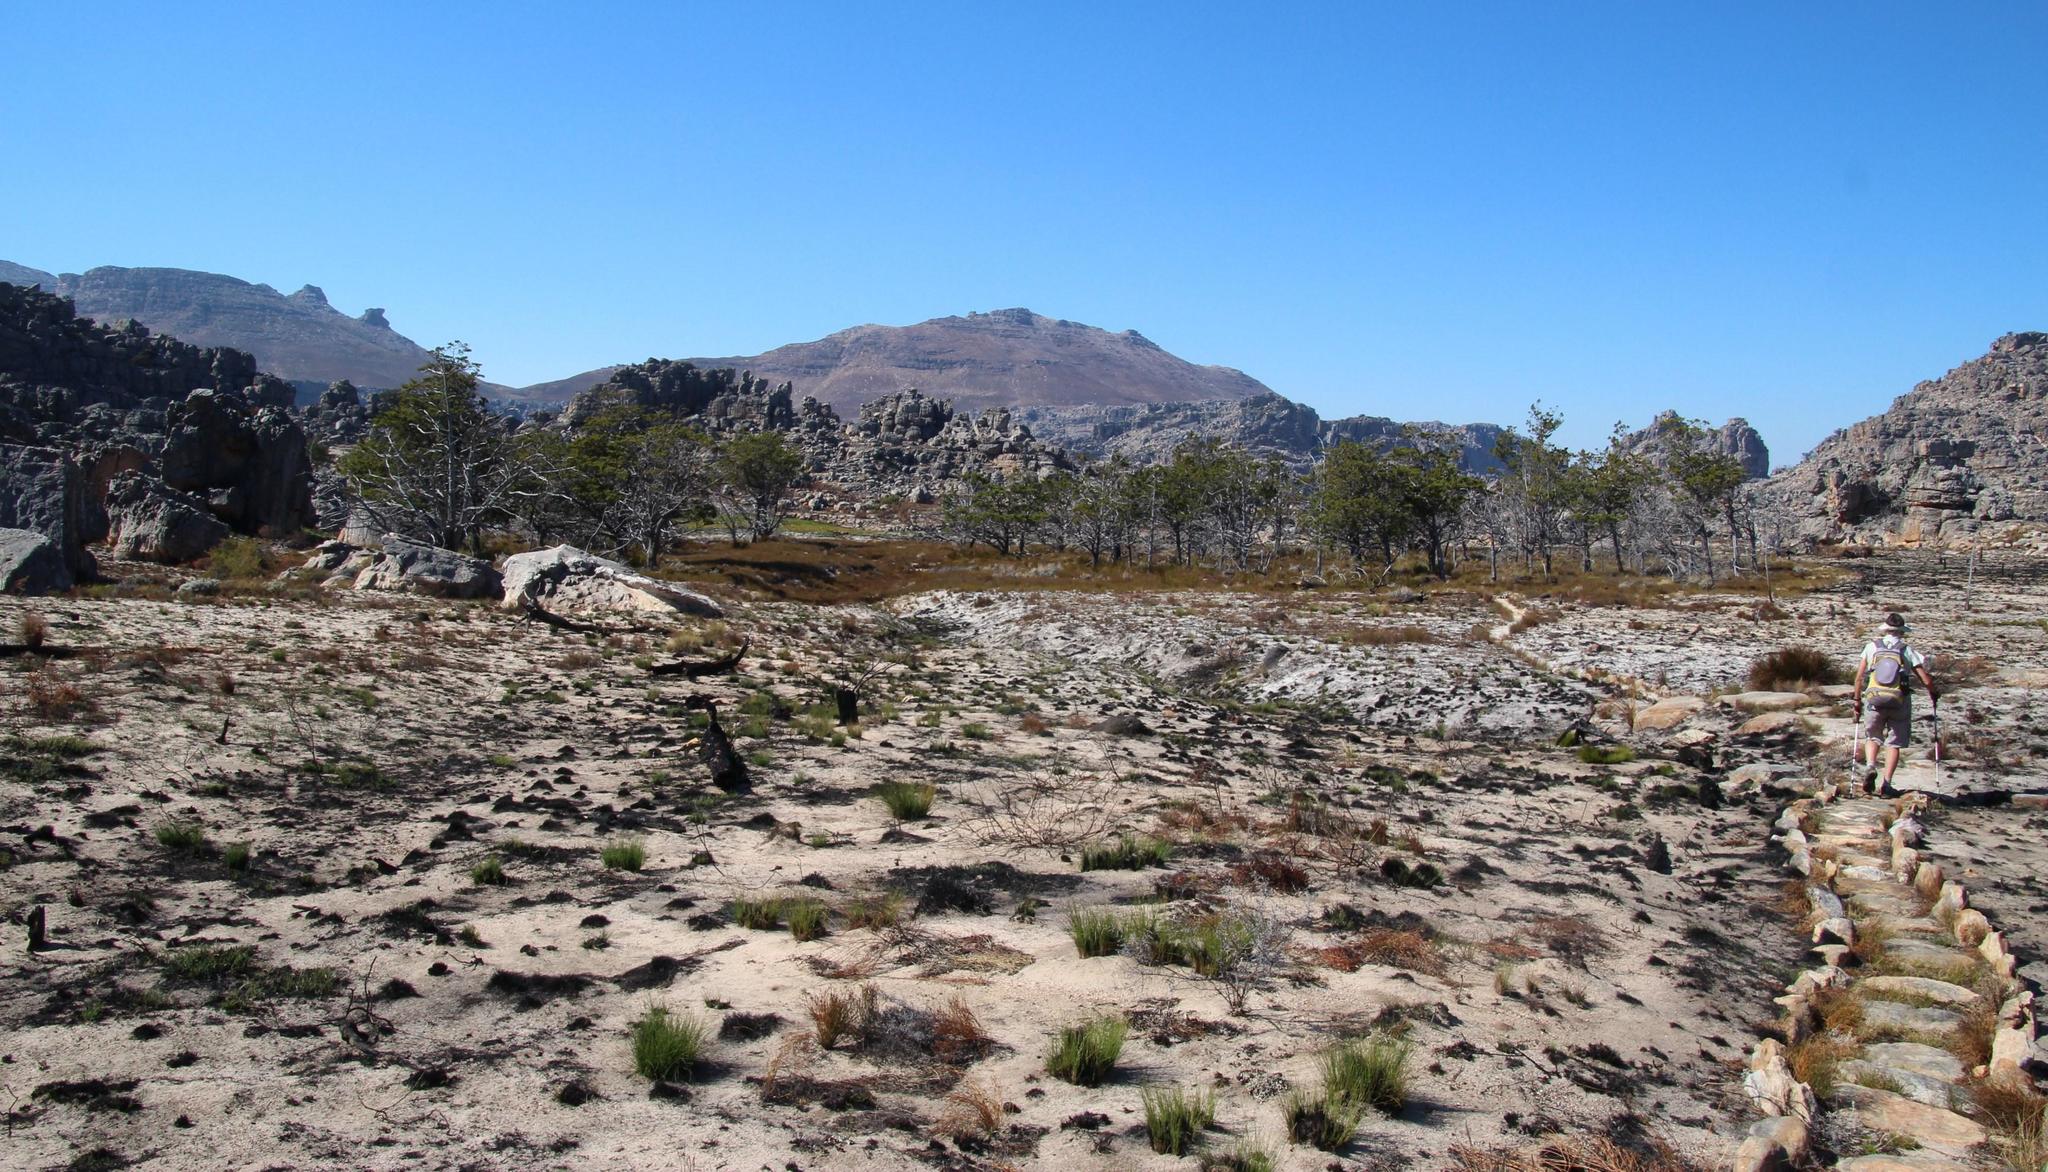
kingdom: Plantae
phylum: Tracheophyta
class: Pinopsida
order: Pinales
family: Cupressaceae
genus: Widdringtonia
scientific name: Widdringtonia nodiflora
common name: Cape cypress
